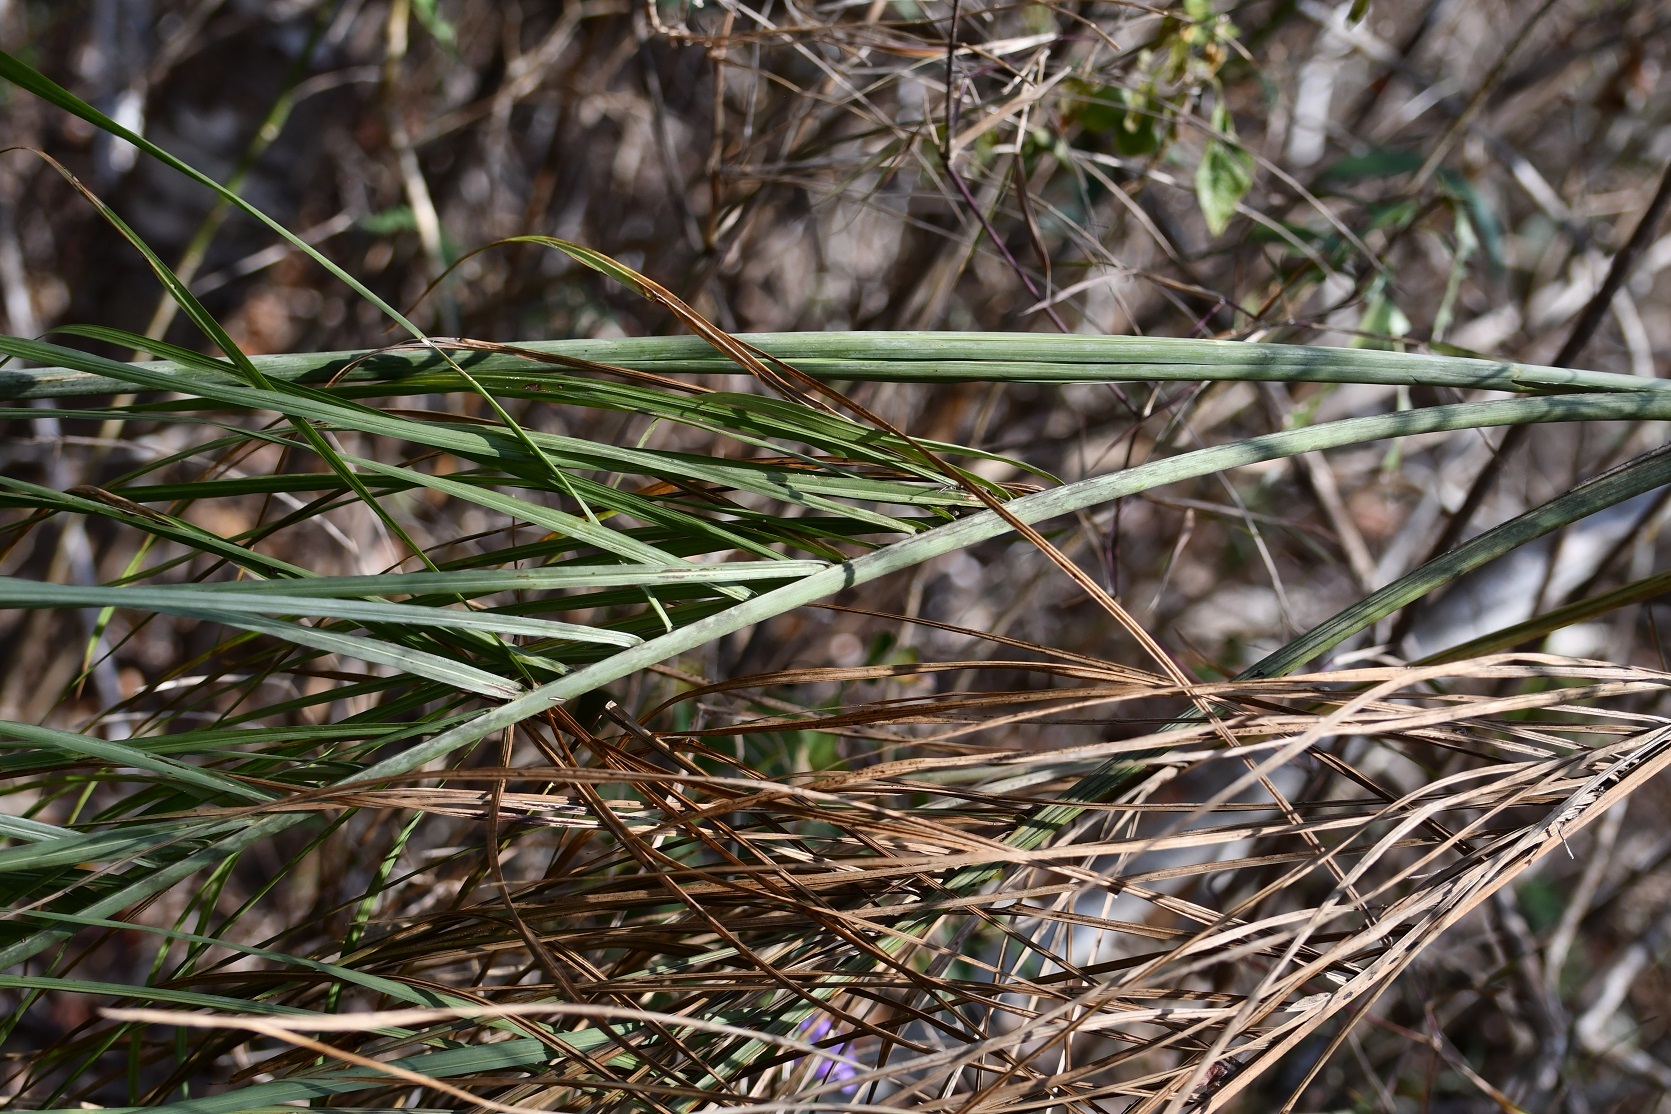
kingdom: Plantae
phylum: Tracheophyta
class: Liliopsida
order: Arecales
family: Arecaceae
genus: Chamaedorea
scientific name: Chamaedorea glaucifolia
